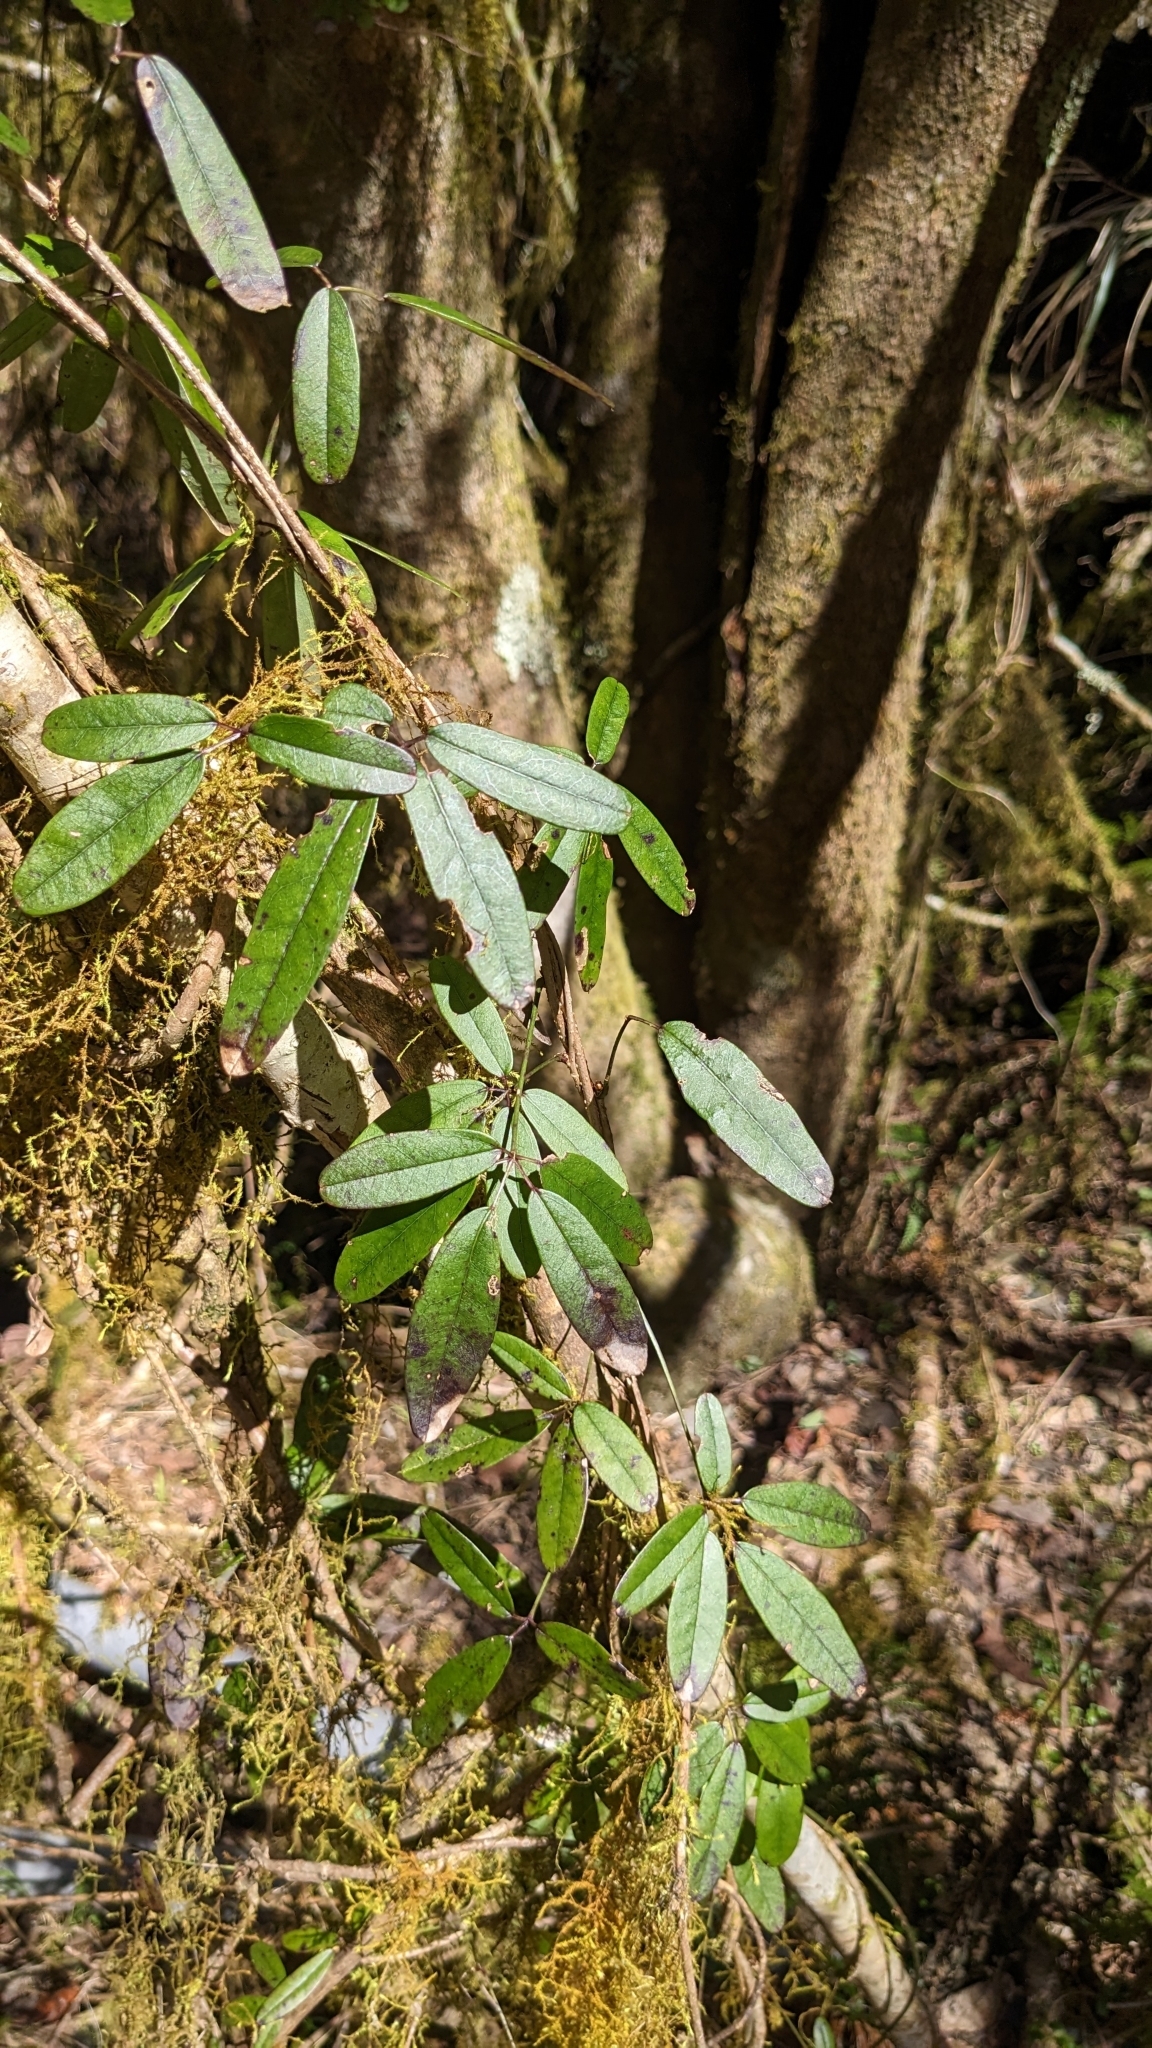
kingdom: Plantae
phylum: Tracheophyta
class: Magnoliopsida
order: Ranunculales
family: Lardizabalaceae
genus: Akebia
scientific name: Akebia longeracemosa
